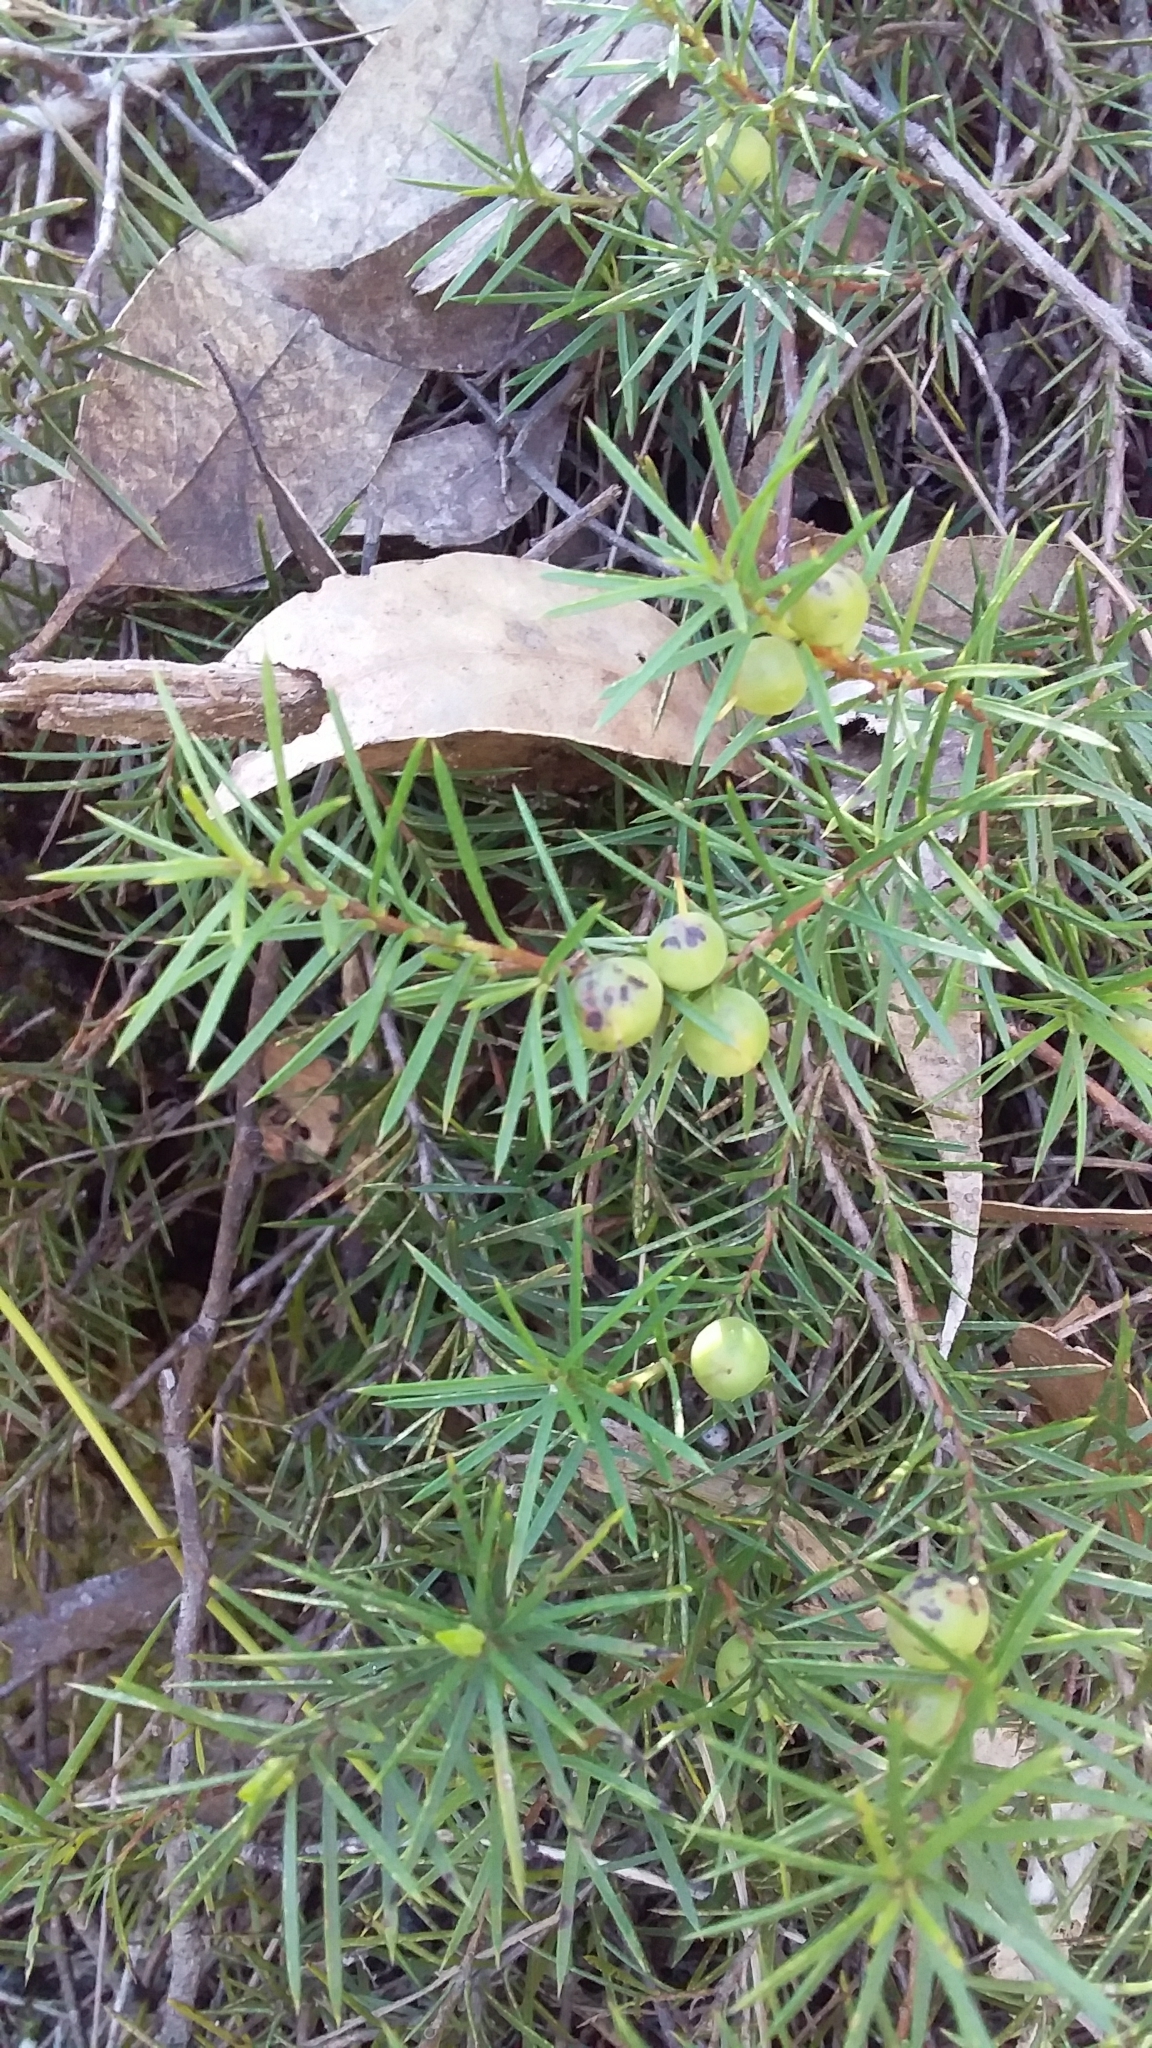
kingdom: Plantae
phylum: Tracheophyta
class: Magnoliopsida
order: Proteales
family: Proteaceae
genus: Persoonia
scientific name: Persoonia juniperina
